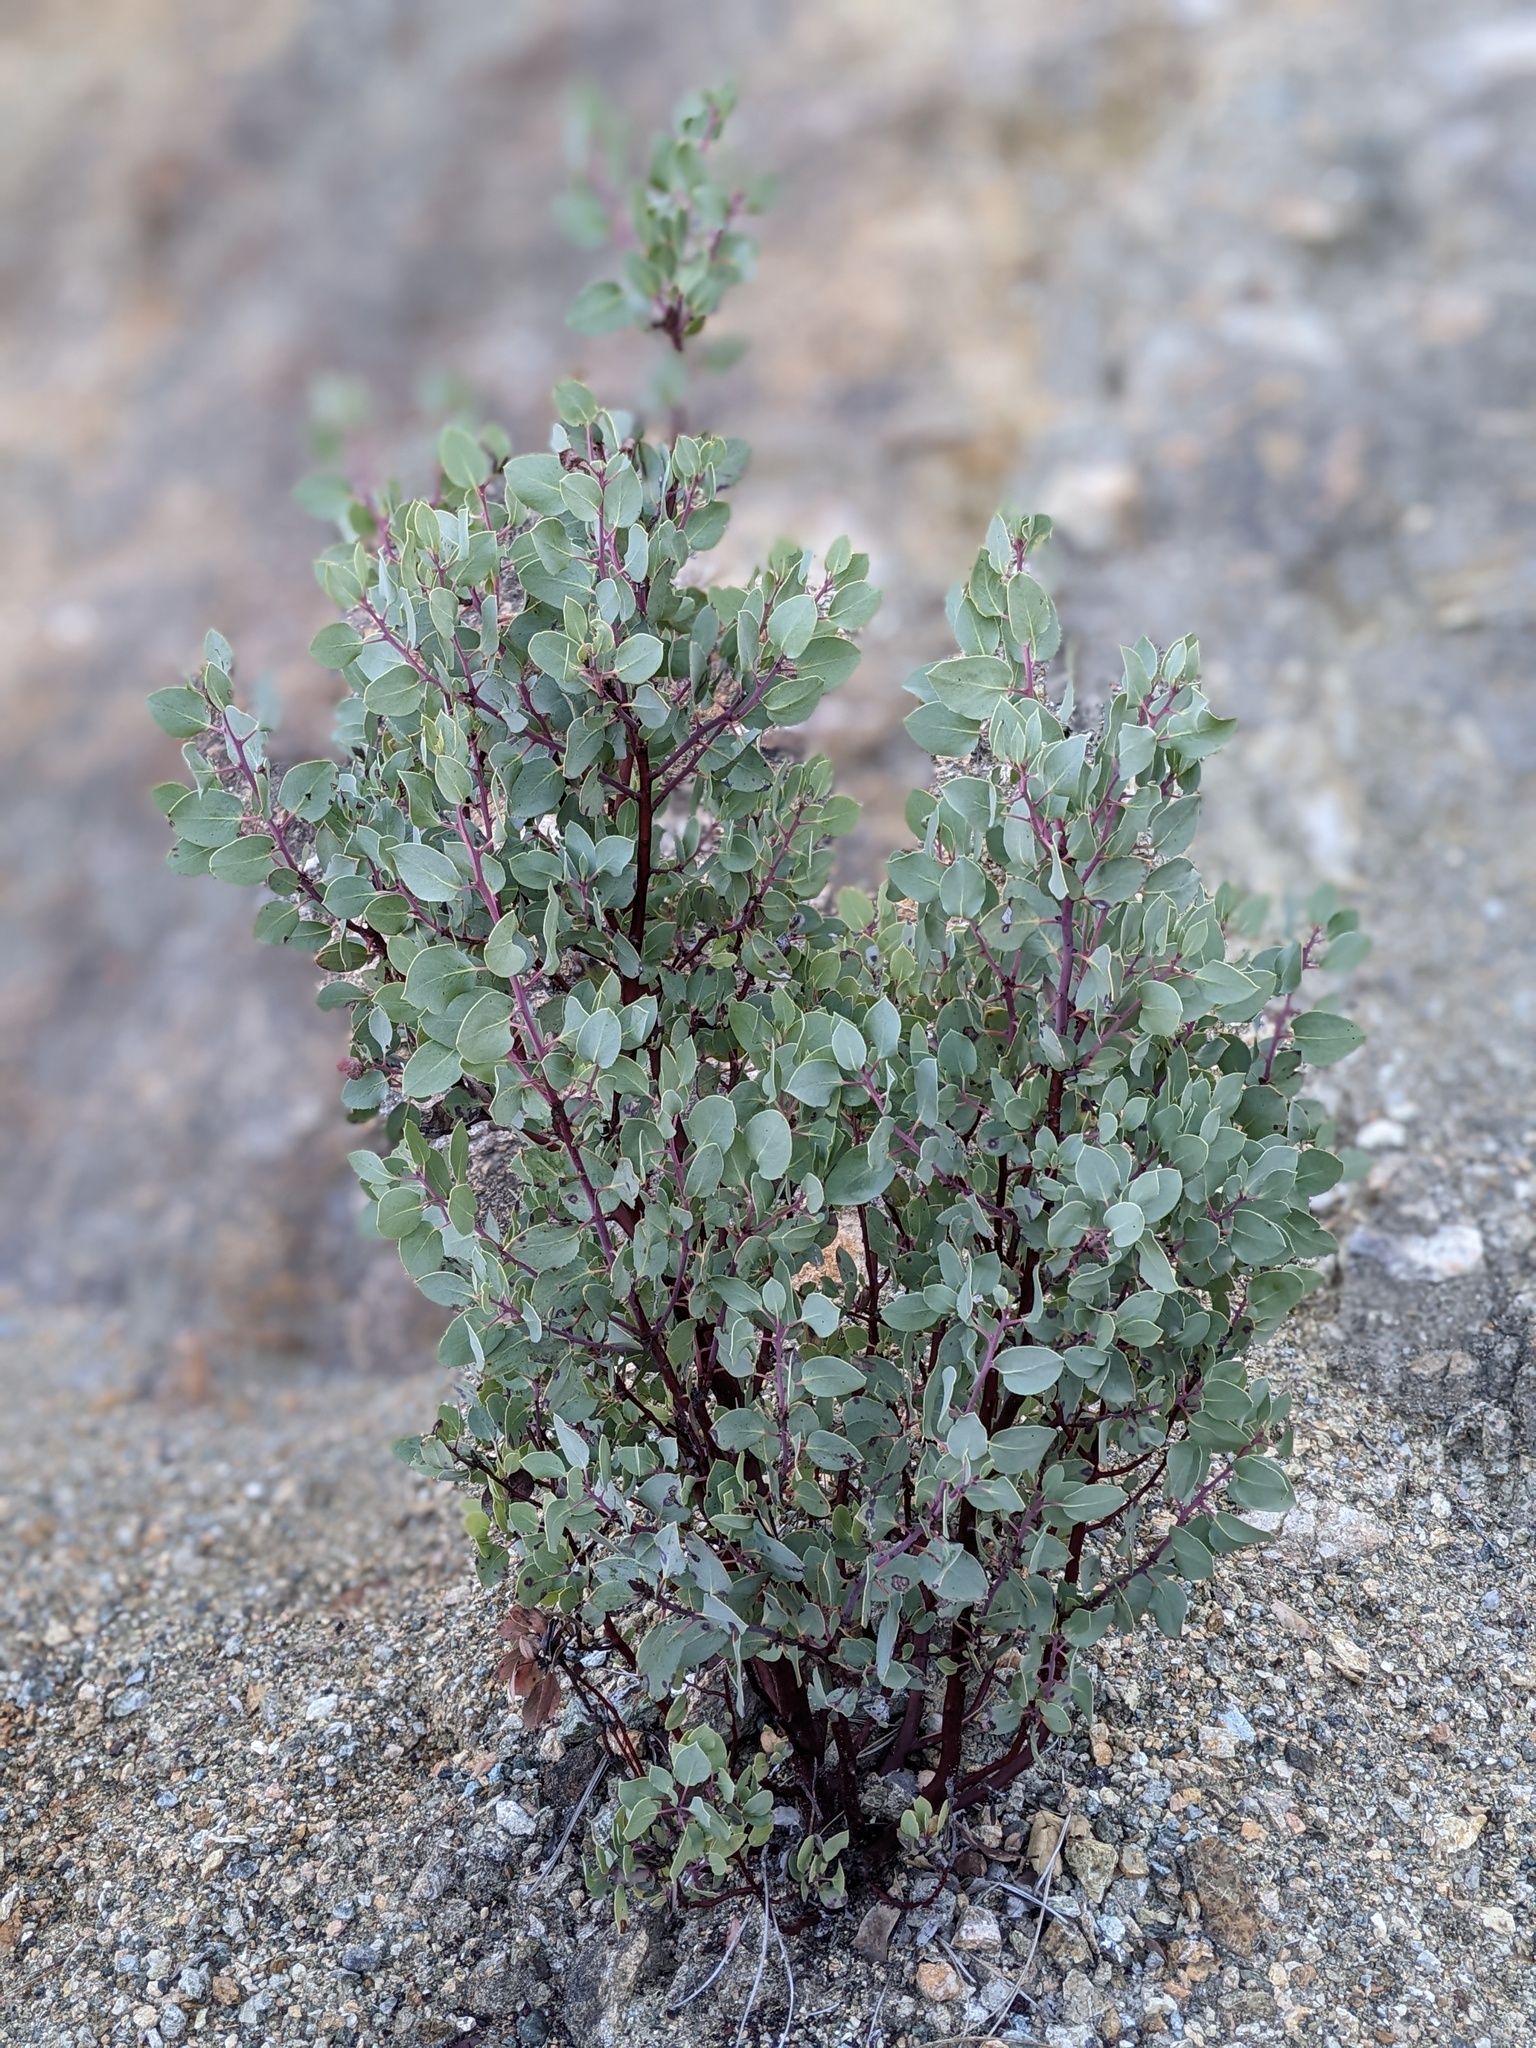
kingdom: Plantae
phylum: Tracheophyta
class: Magnoliopsida
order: Ericales
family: Ericaceae
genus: Arctostaphylos
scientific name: Arctostaphylos glauca
